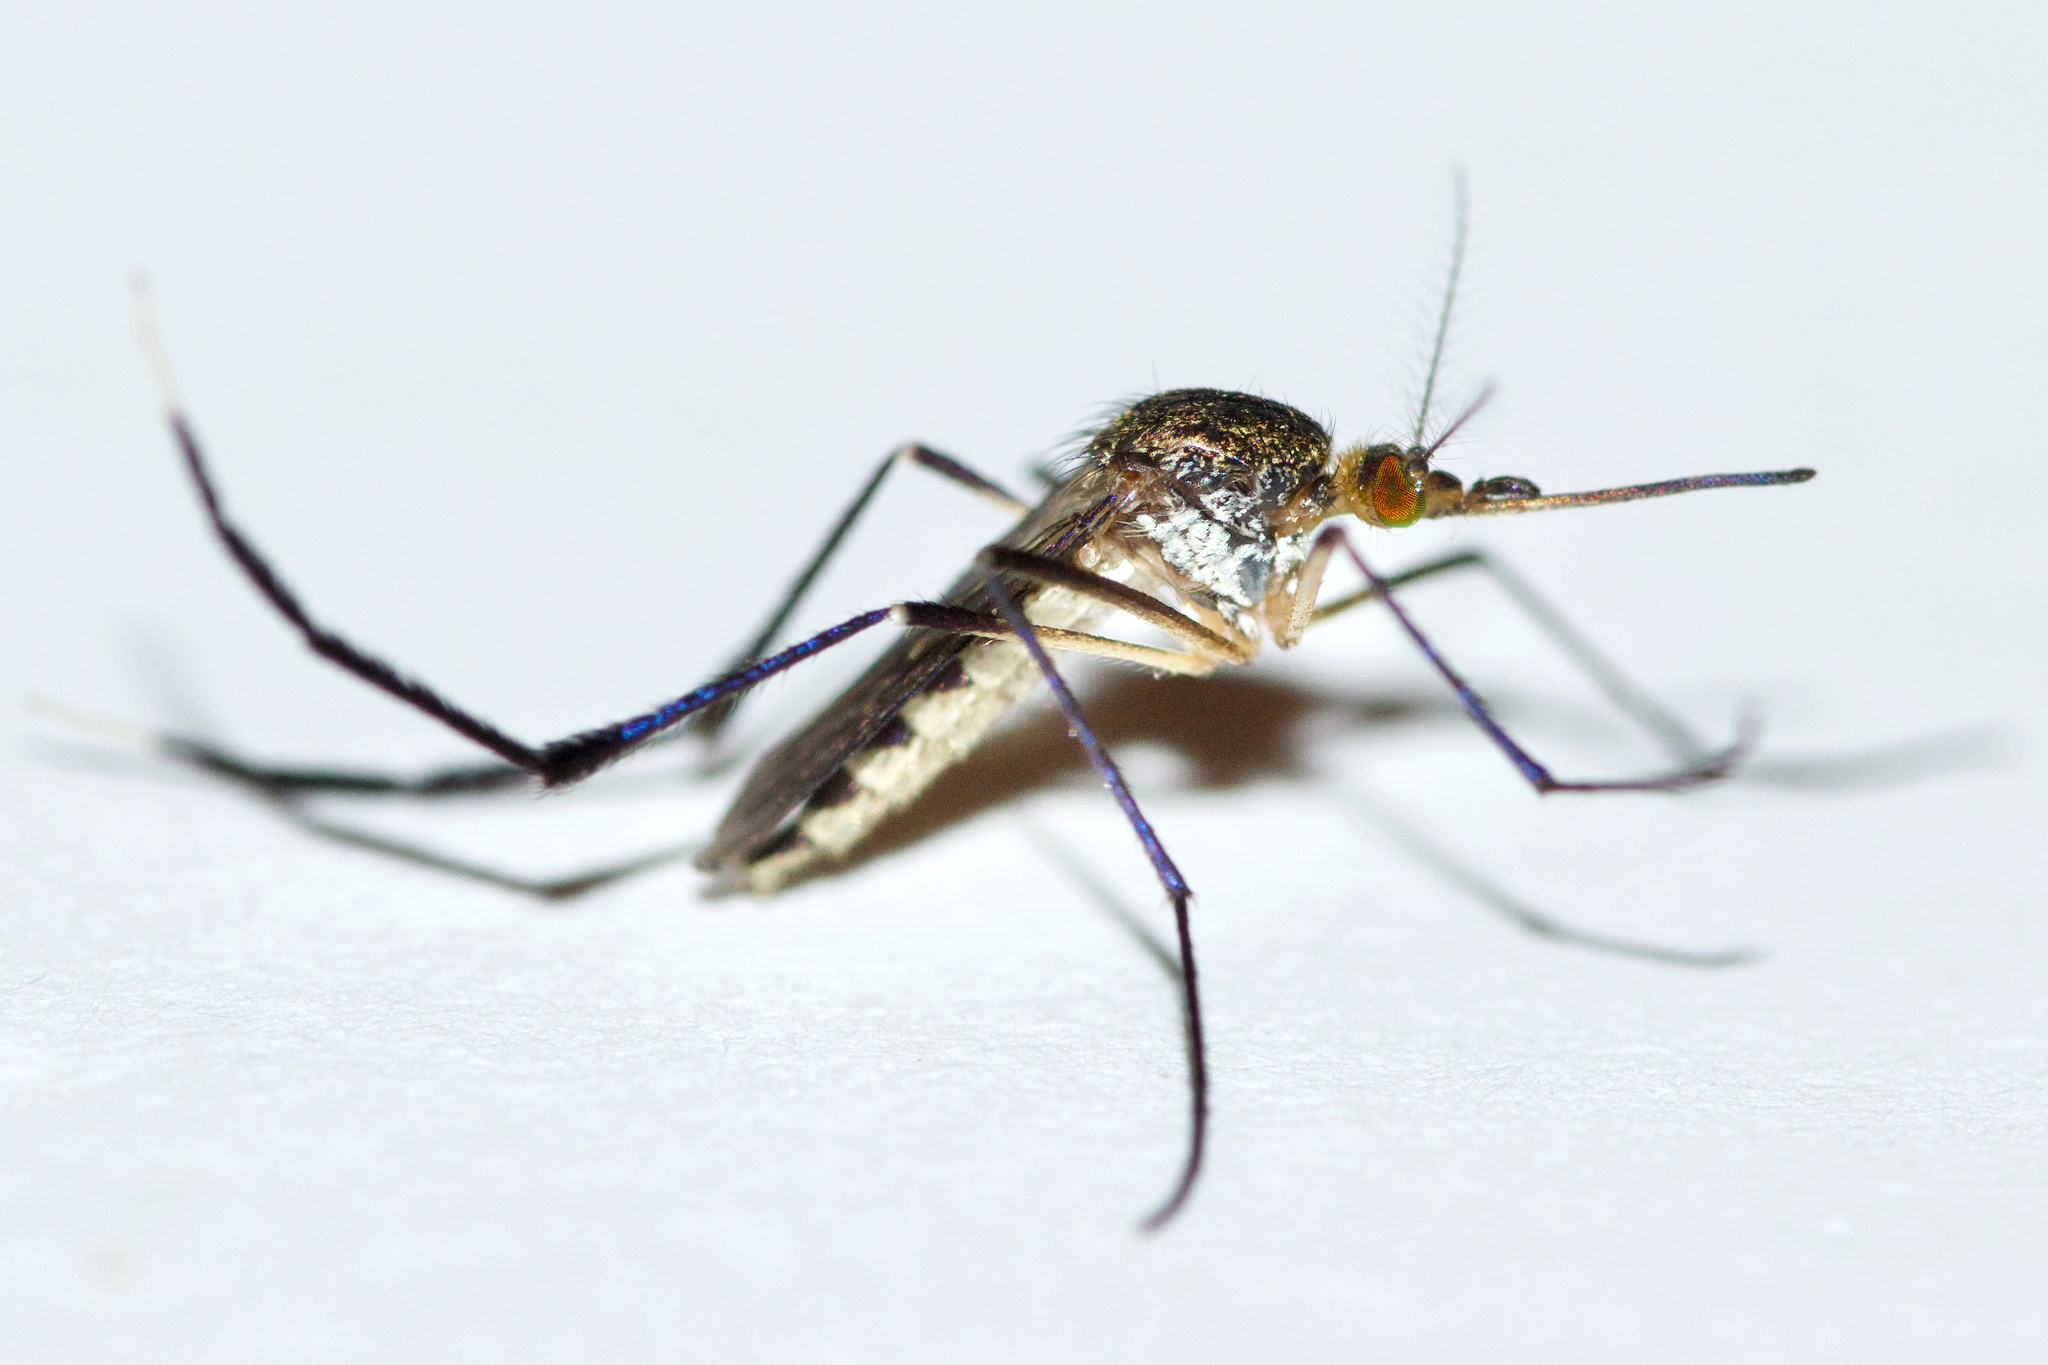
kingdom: Animalia
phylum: Arthropoda
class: Insecta
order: Diptera
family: Culicidae
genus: Psorophora
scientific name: Psorophora ferox
